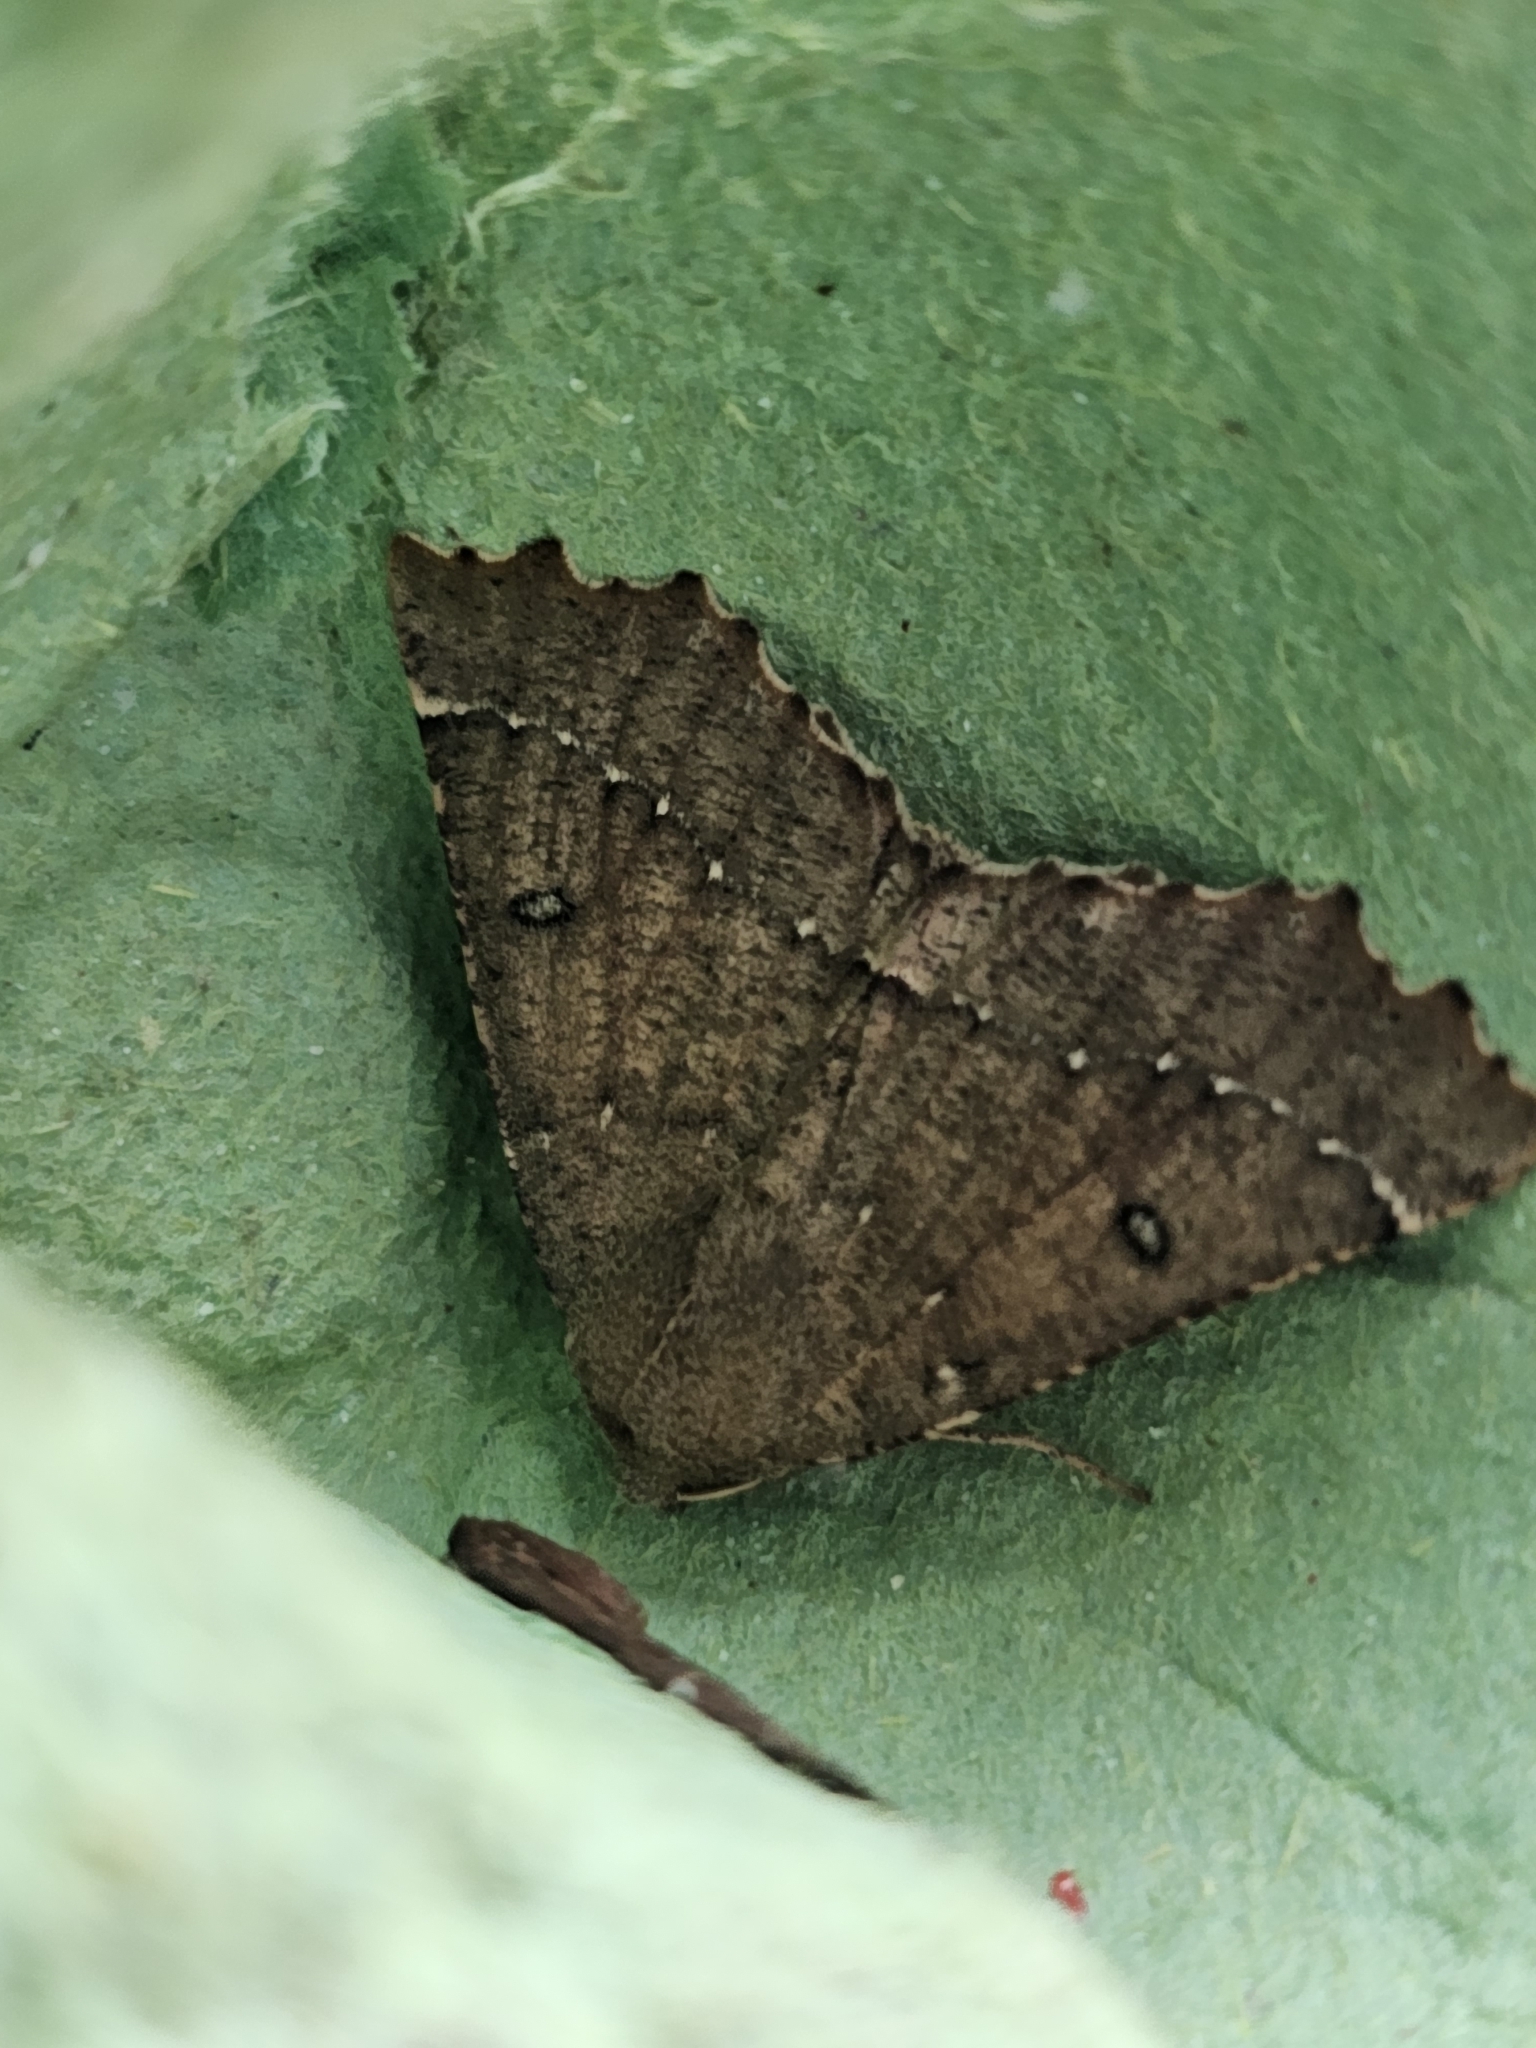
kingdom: Animalia
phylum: Arthropoda
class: Insecta
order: Lepidoptera
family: Geometridae
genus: Odontopera
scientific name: Odontopera bidentata
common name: Scalloped hazel
